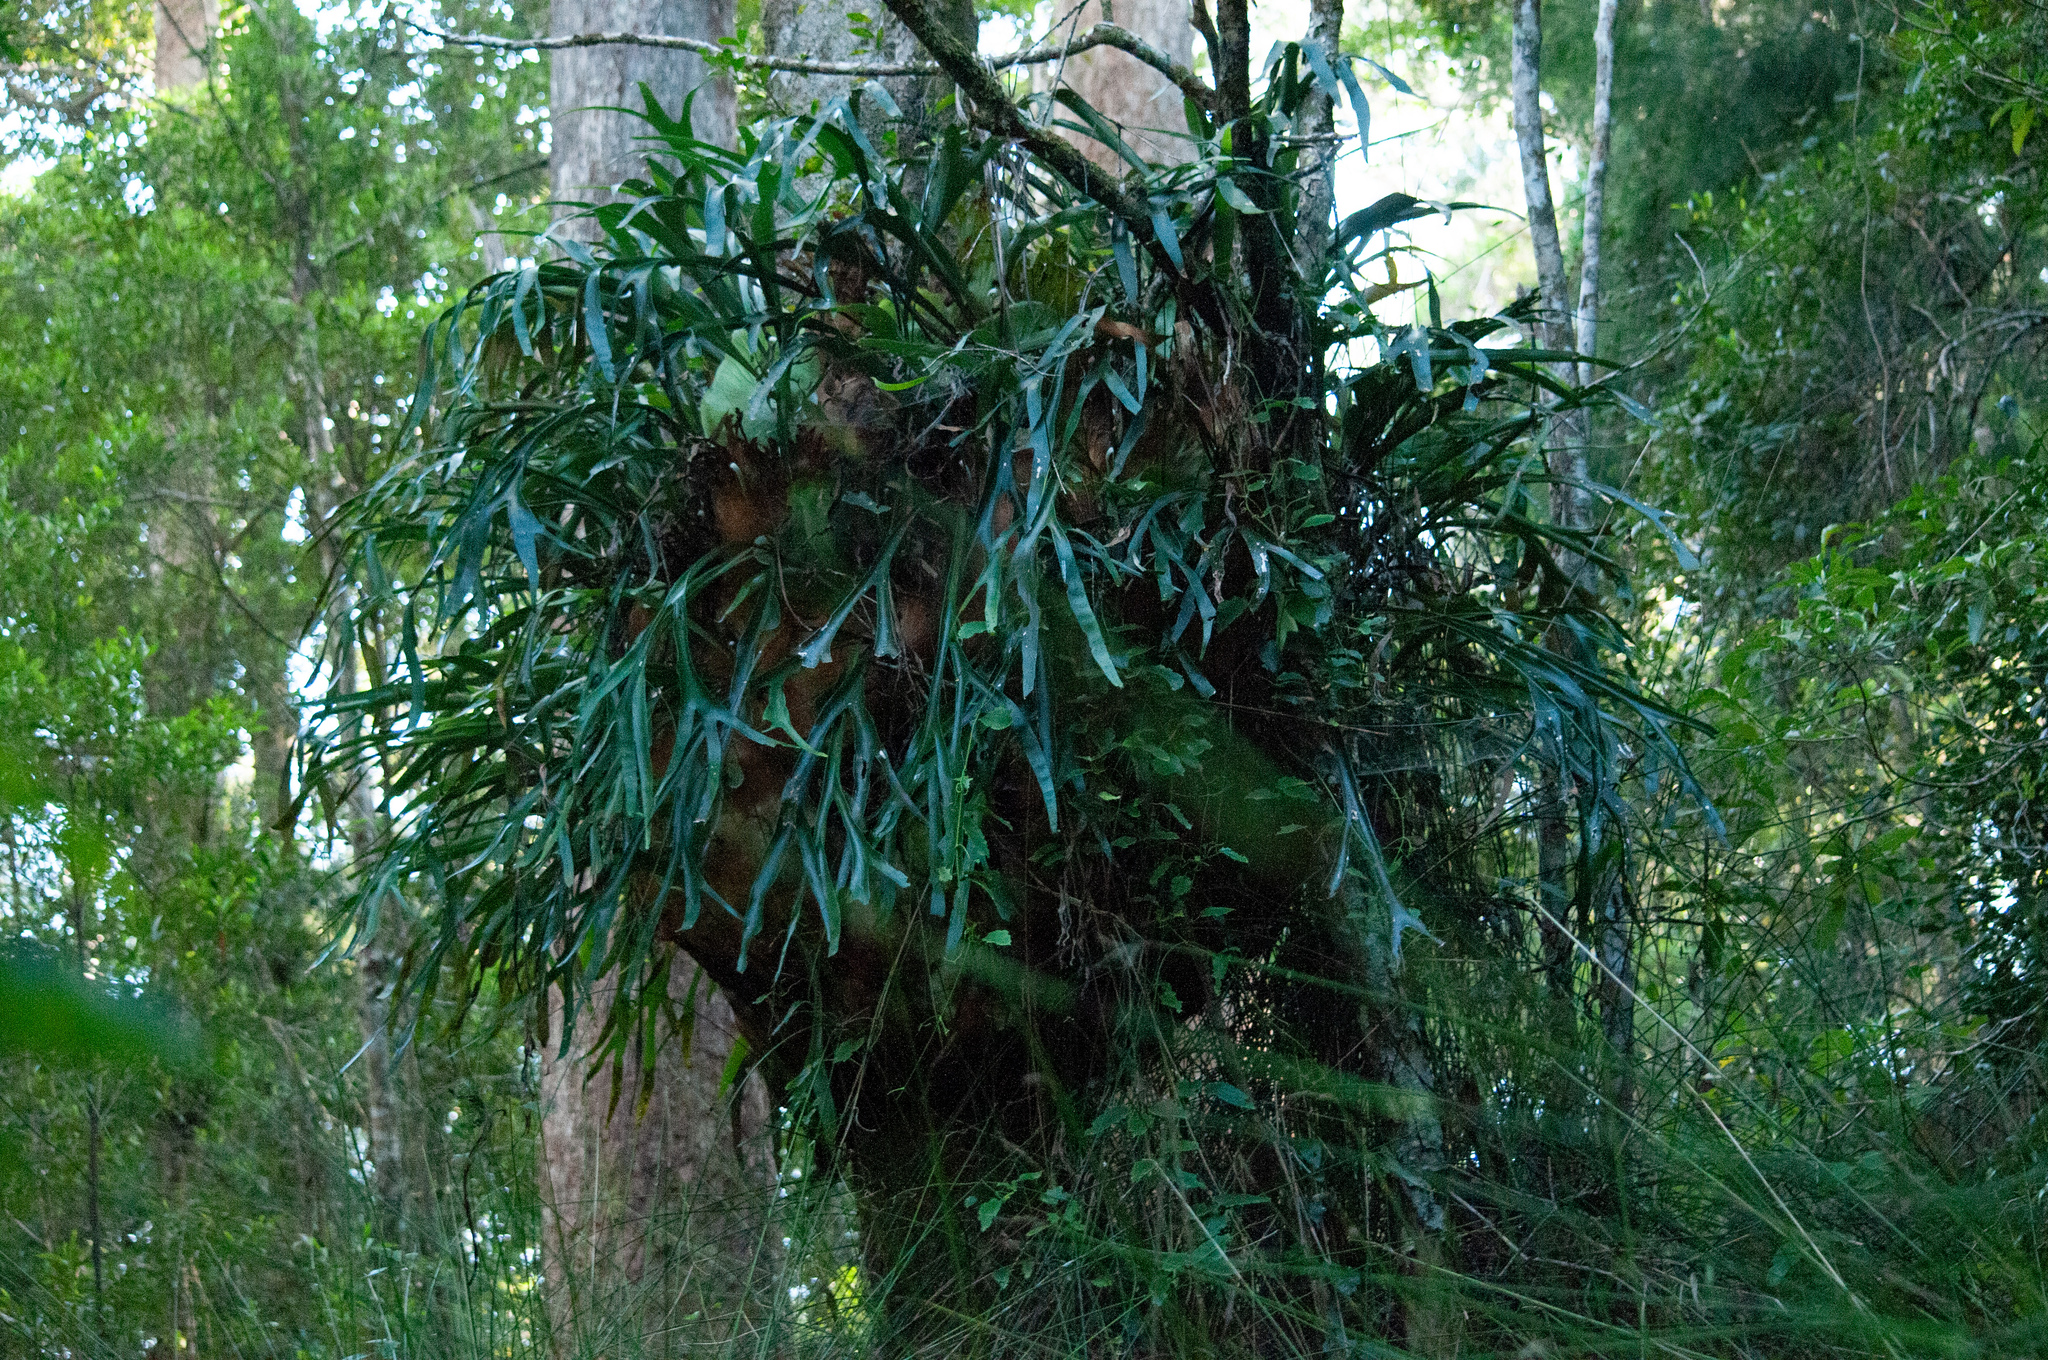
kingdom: Plantae
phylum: Tracheophyta
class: Polypodiopsida
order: Polypodiales
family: Polypodiaceae
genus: Platycerium
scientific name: Platycerium bifurcatum
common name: Elkhorn fern
